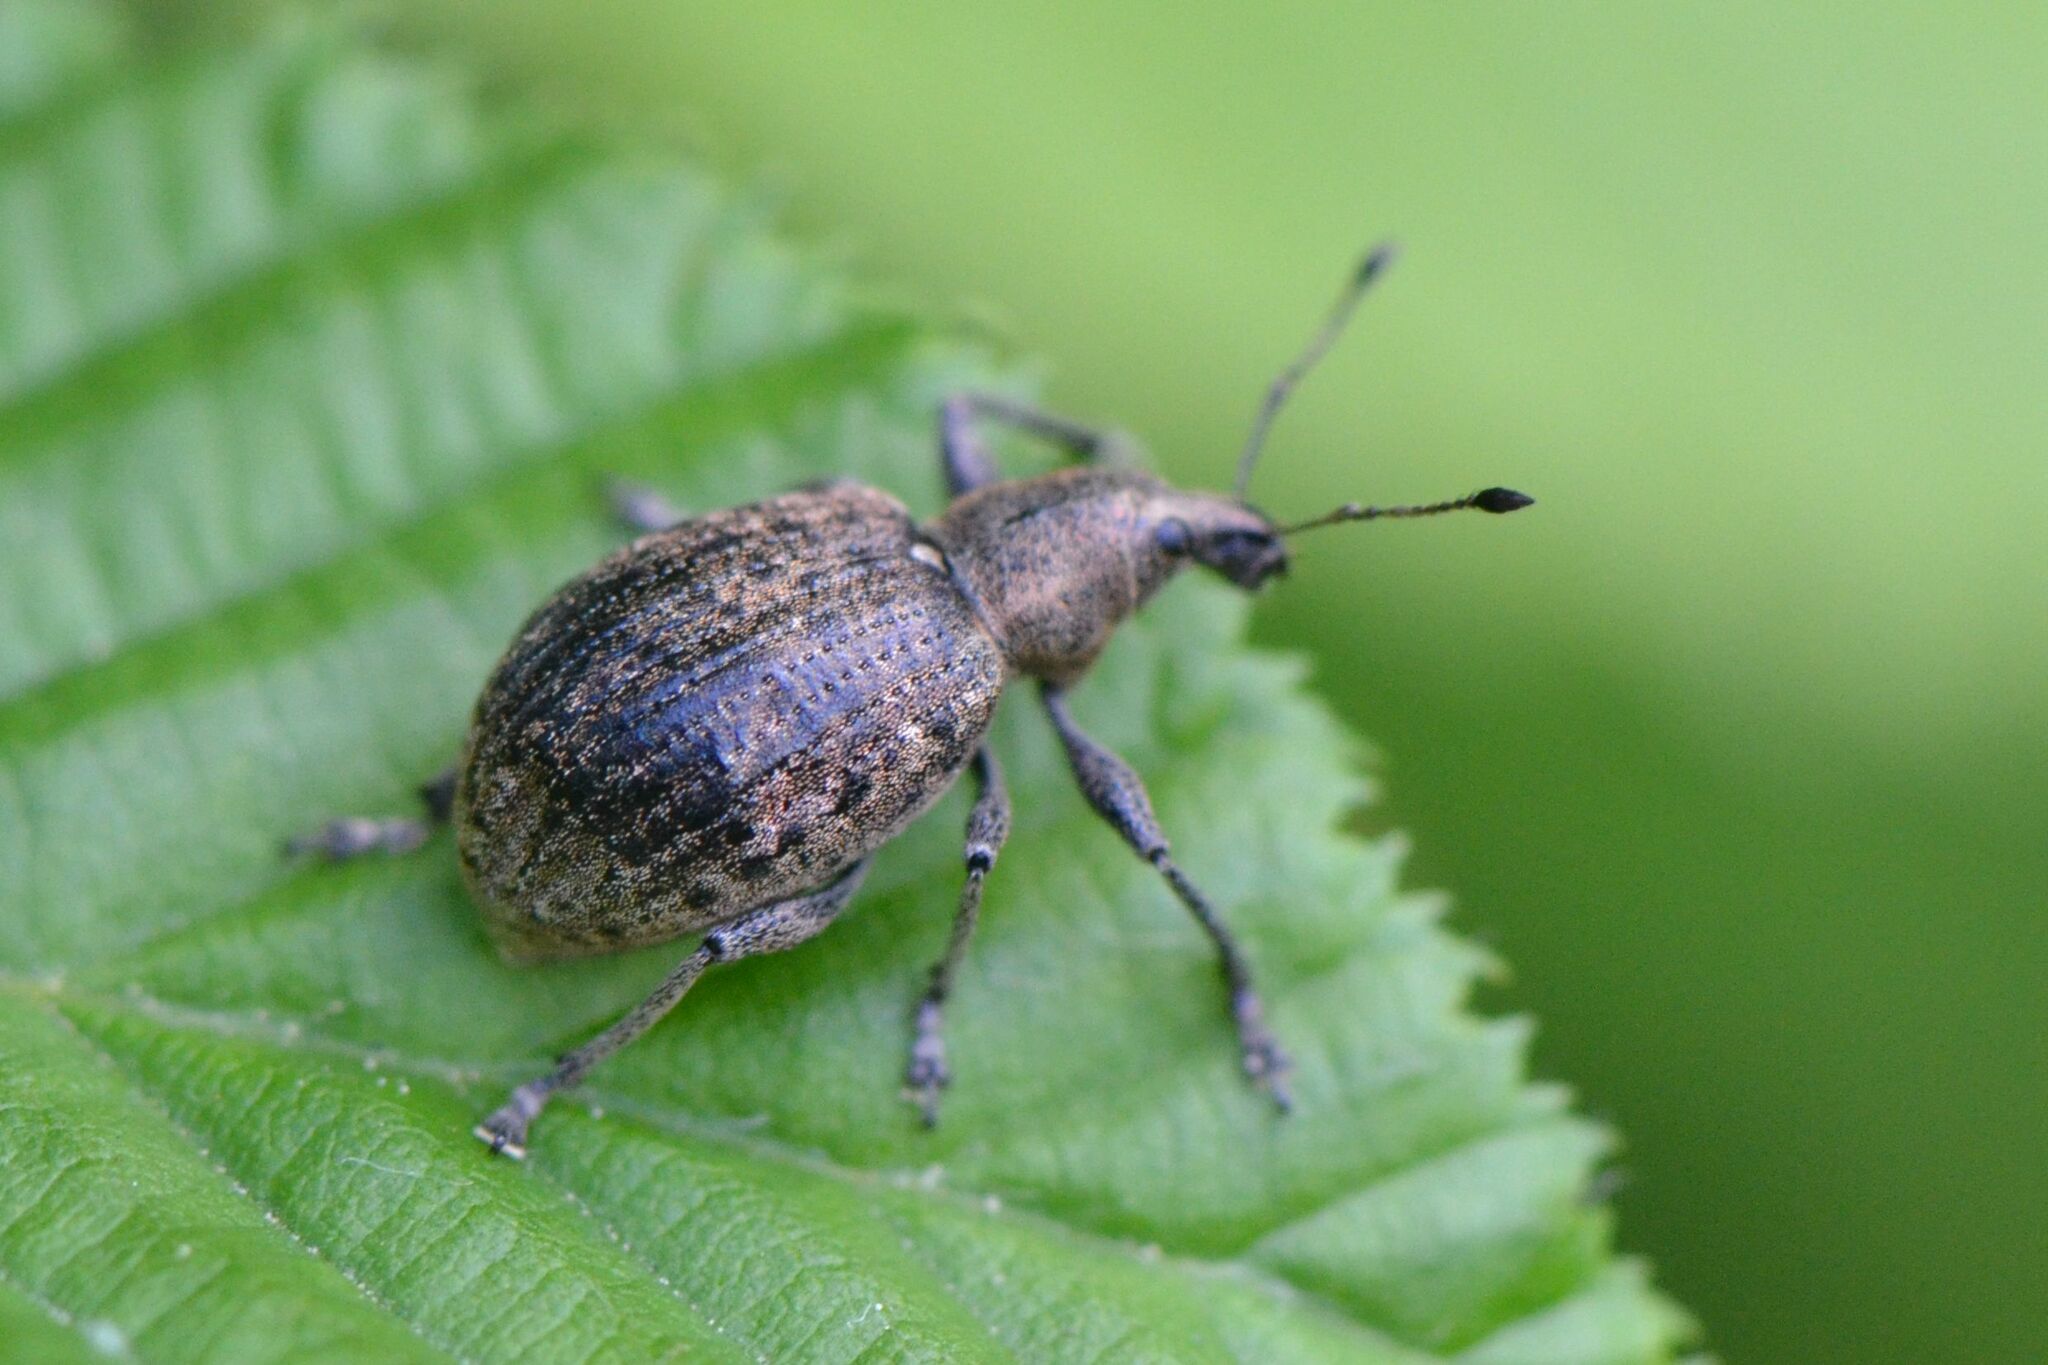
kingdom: Animalia
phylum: Arthropoda
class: Insecta
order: Coleoptera
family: Curculionidae
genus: Liophloeus
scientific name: Liophloeus tessulatus
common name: Weevil
